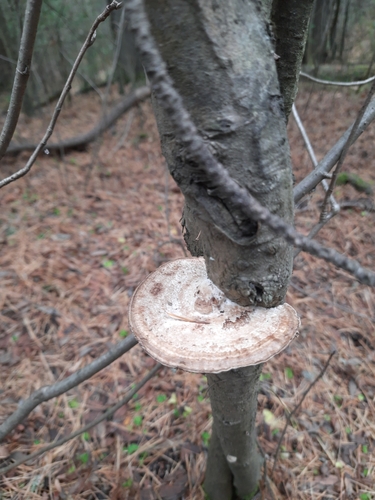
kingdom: Fungi
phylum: Basidiomycota
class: Agaricomycetes
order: Polyporales
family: Polyporaceae
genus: Daedaleopsis
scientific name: Daedaleopsis confragosa
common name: Blushing bracket
